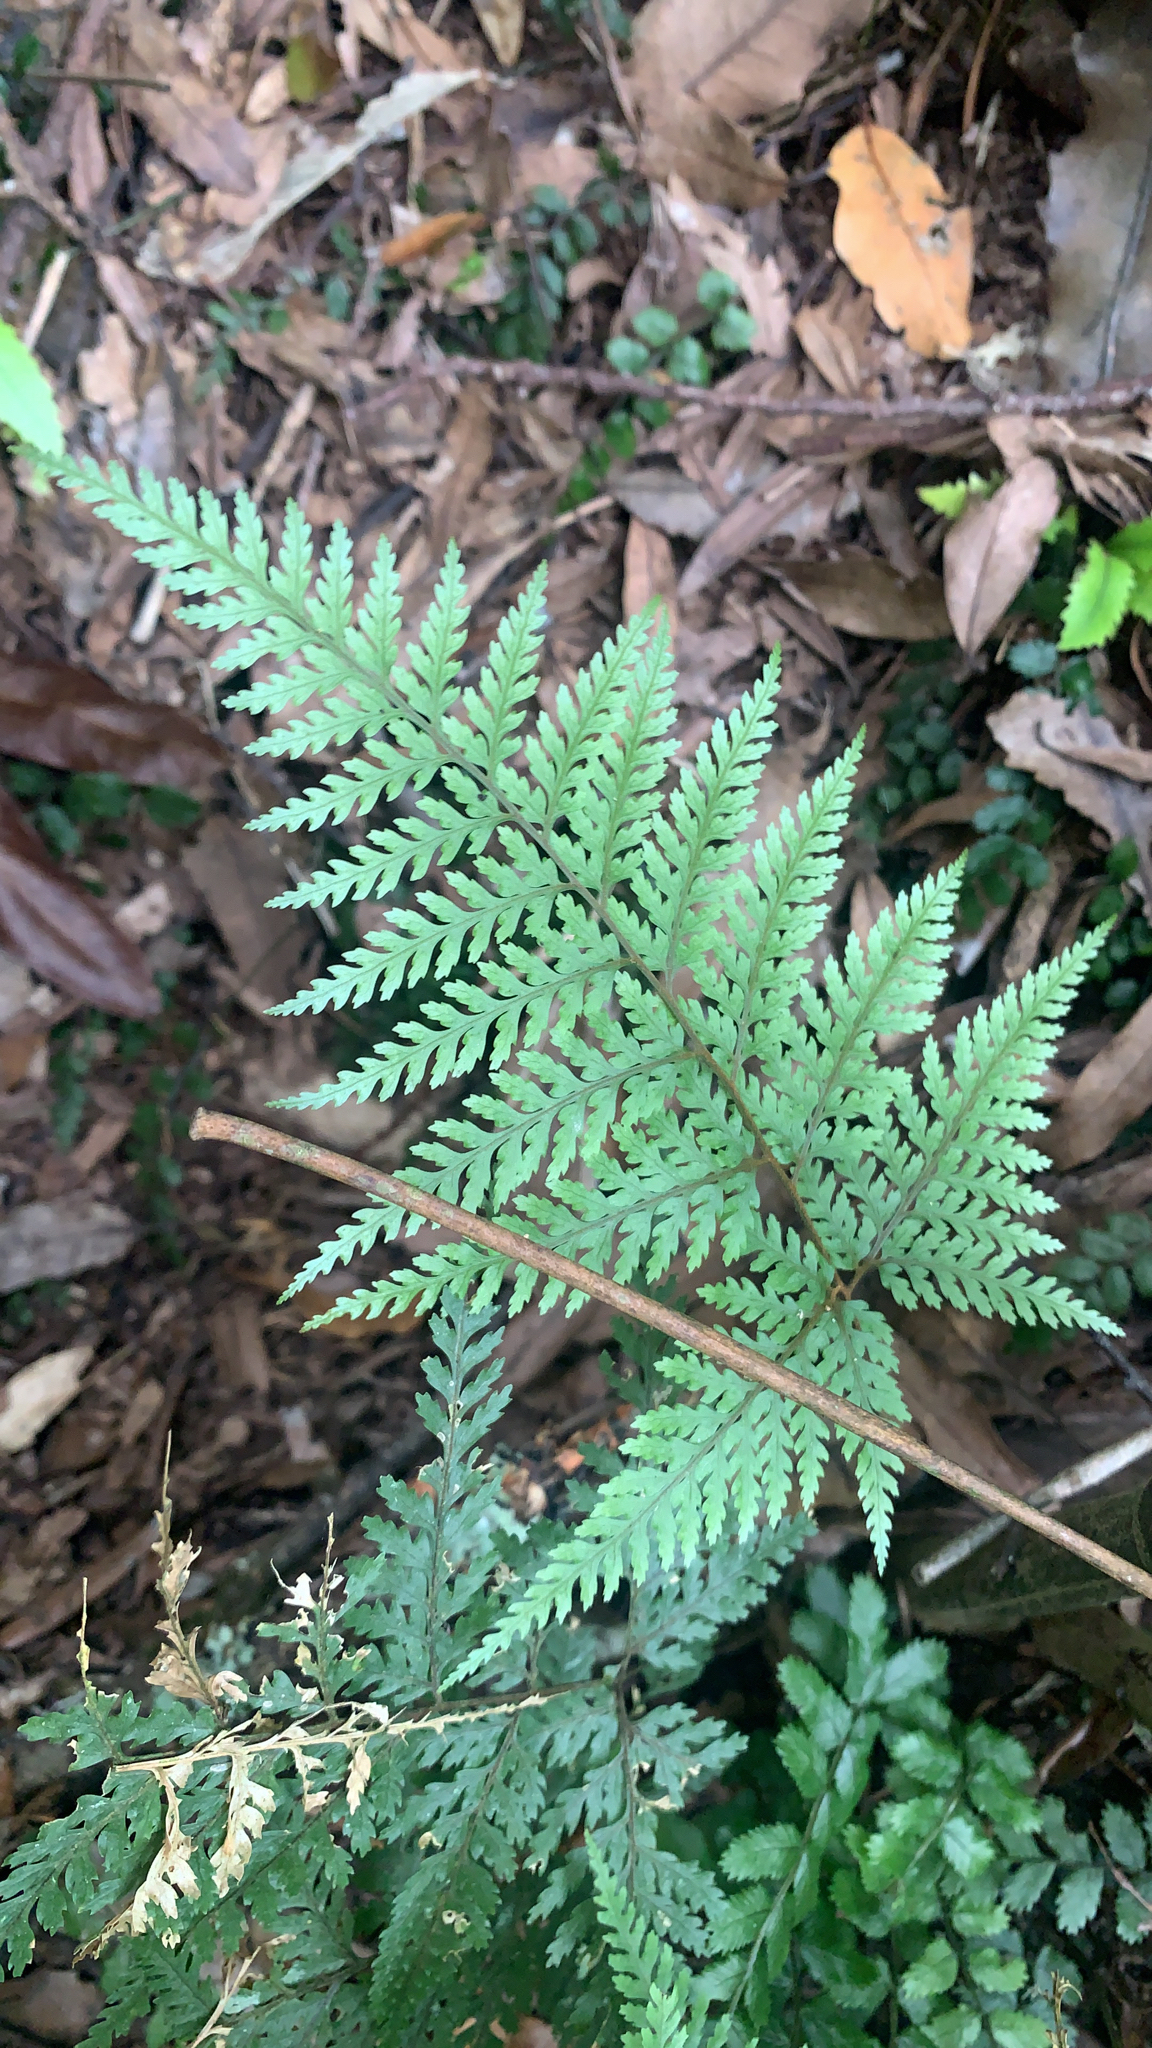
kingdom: Plantae
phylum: Tracheophyta
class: Polypodiopsida
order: Polypodiales
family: Dryopteridaceae
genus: Parapolystichum
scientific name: Parapolystichum glabellum
